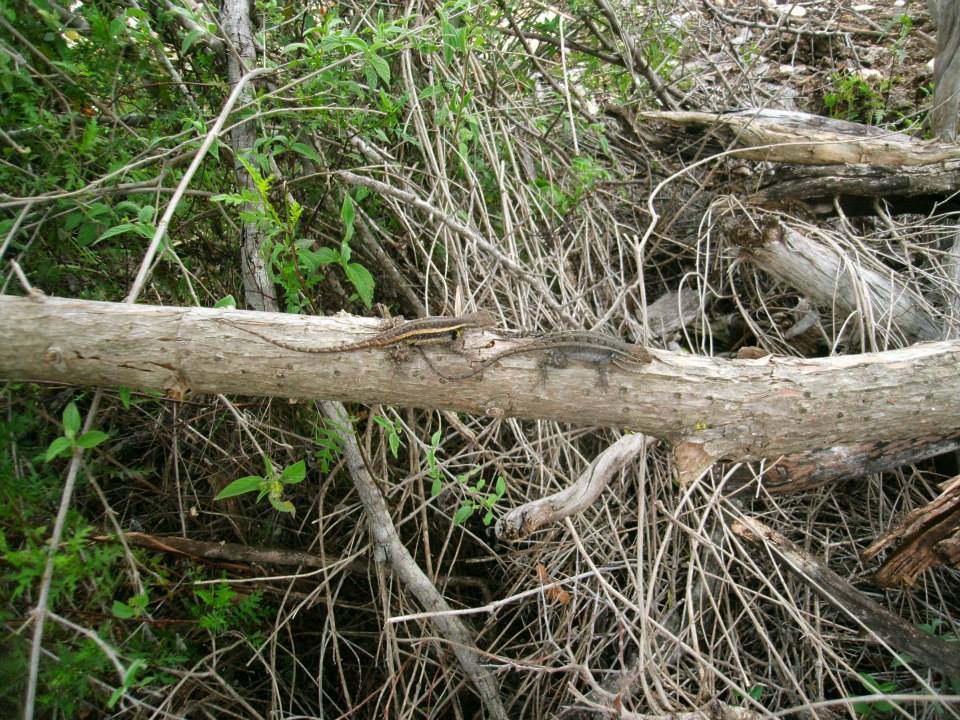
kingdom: Animalia
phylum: Chordata
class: Squamata
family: Phrynosomatidae
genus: Sceloporus
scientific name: Sceloporus variabilis
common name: Rosebelly lizard
